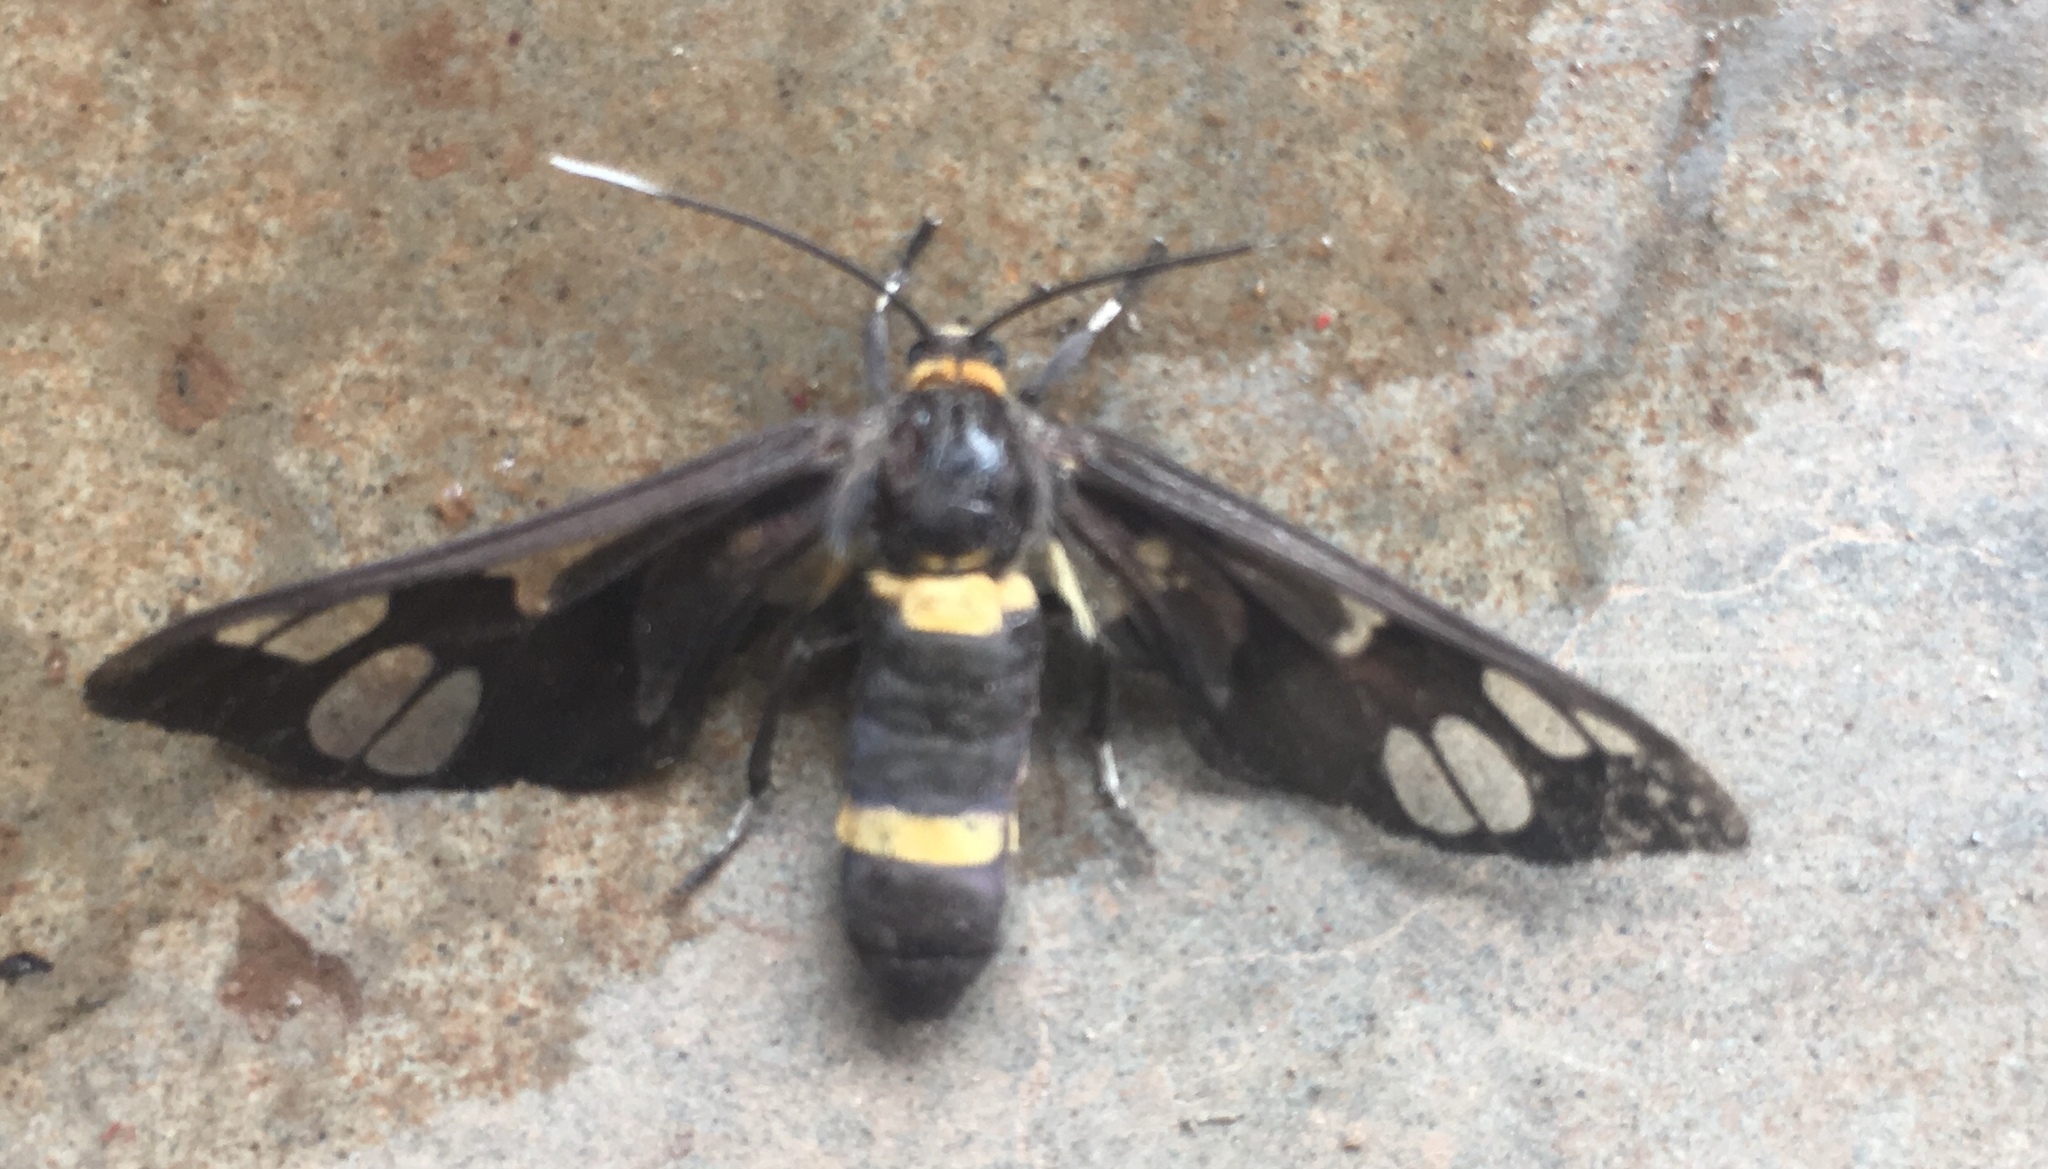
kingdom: Animalia
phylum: Arthropoda
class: Insecta
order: Lepidoptera
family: Erebidae
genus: Syntomoides
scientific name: Syntomoides imaon
